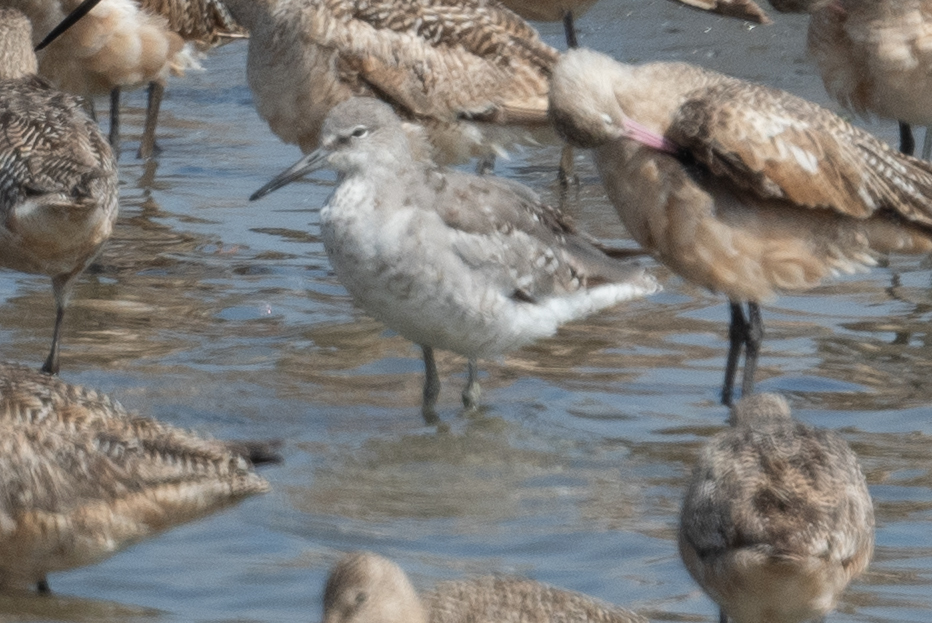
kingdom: Animalia
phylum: Chordata
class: Aves
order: Charadriiformes
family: Scolopacidae
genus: Tringa
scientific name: Tringa semipalmata
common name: Willet
